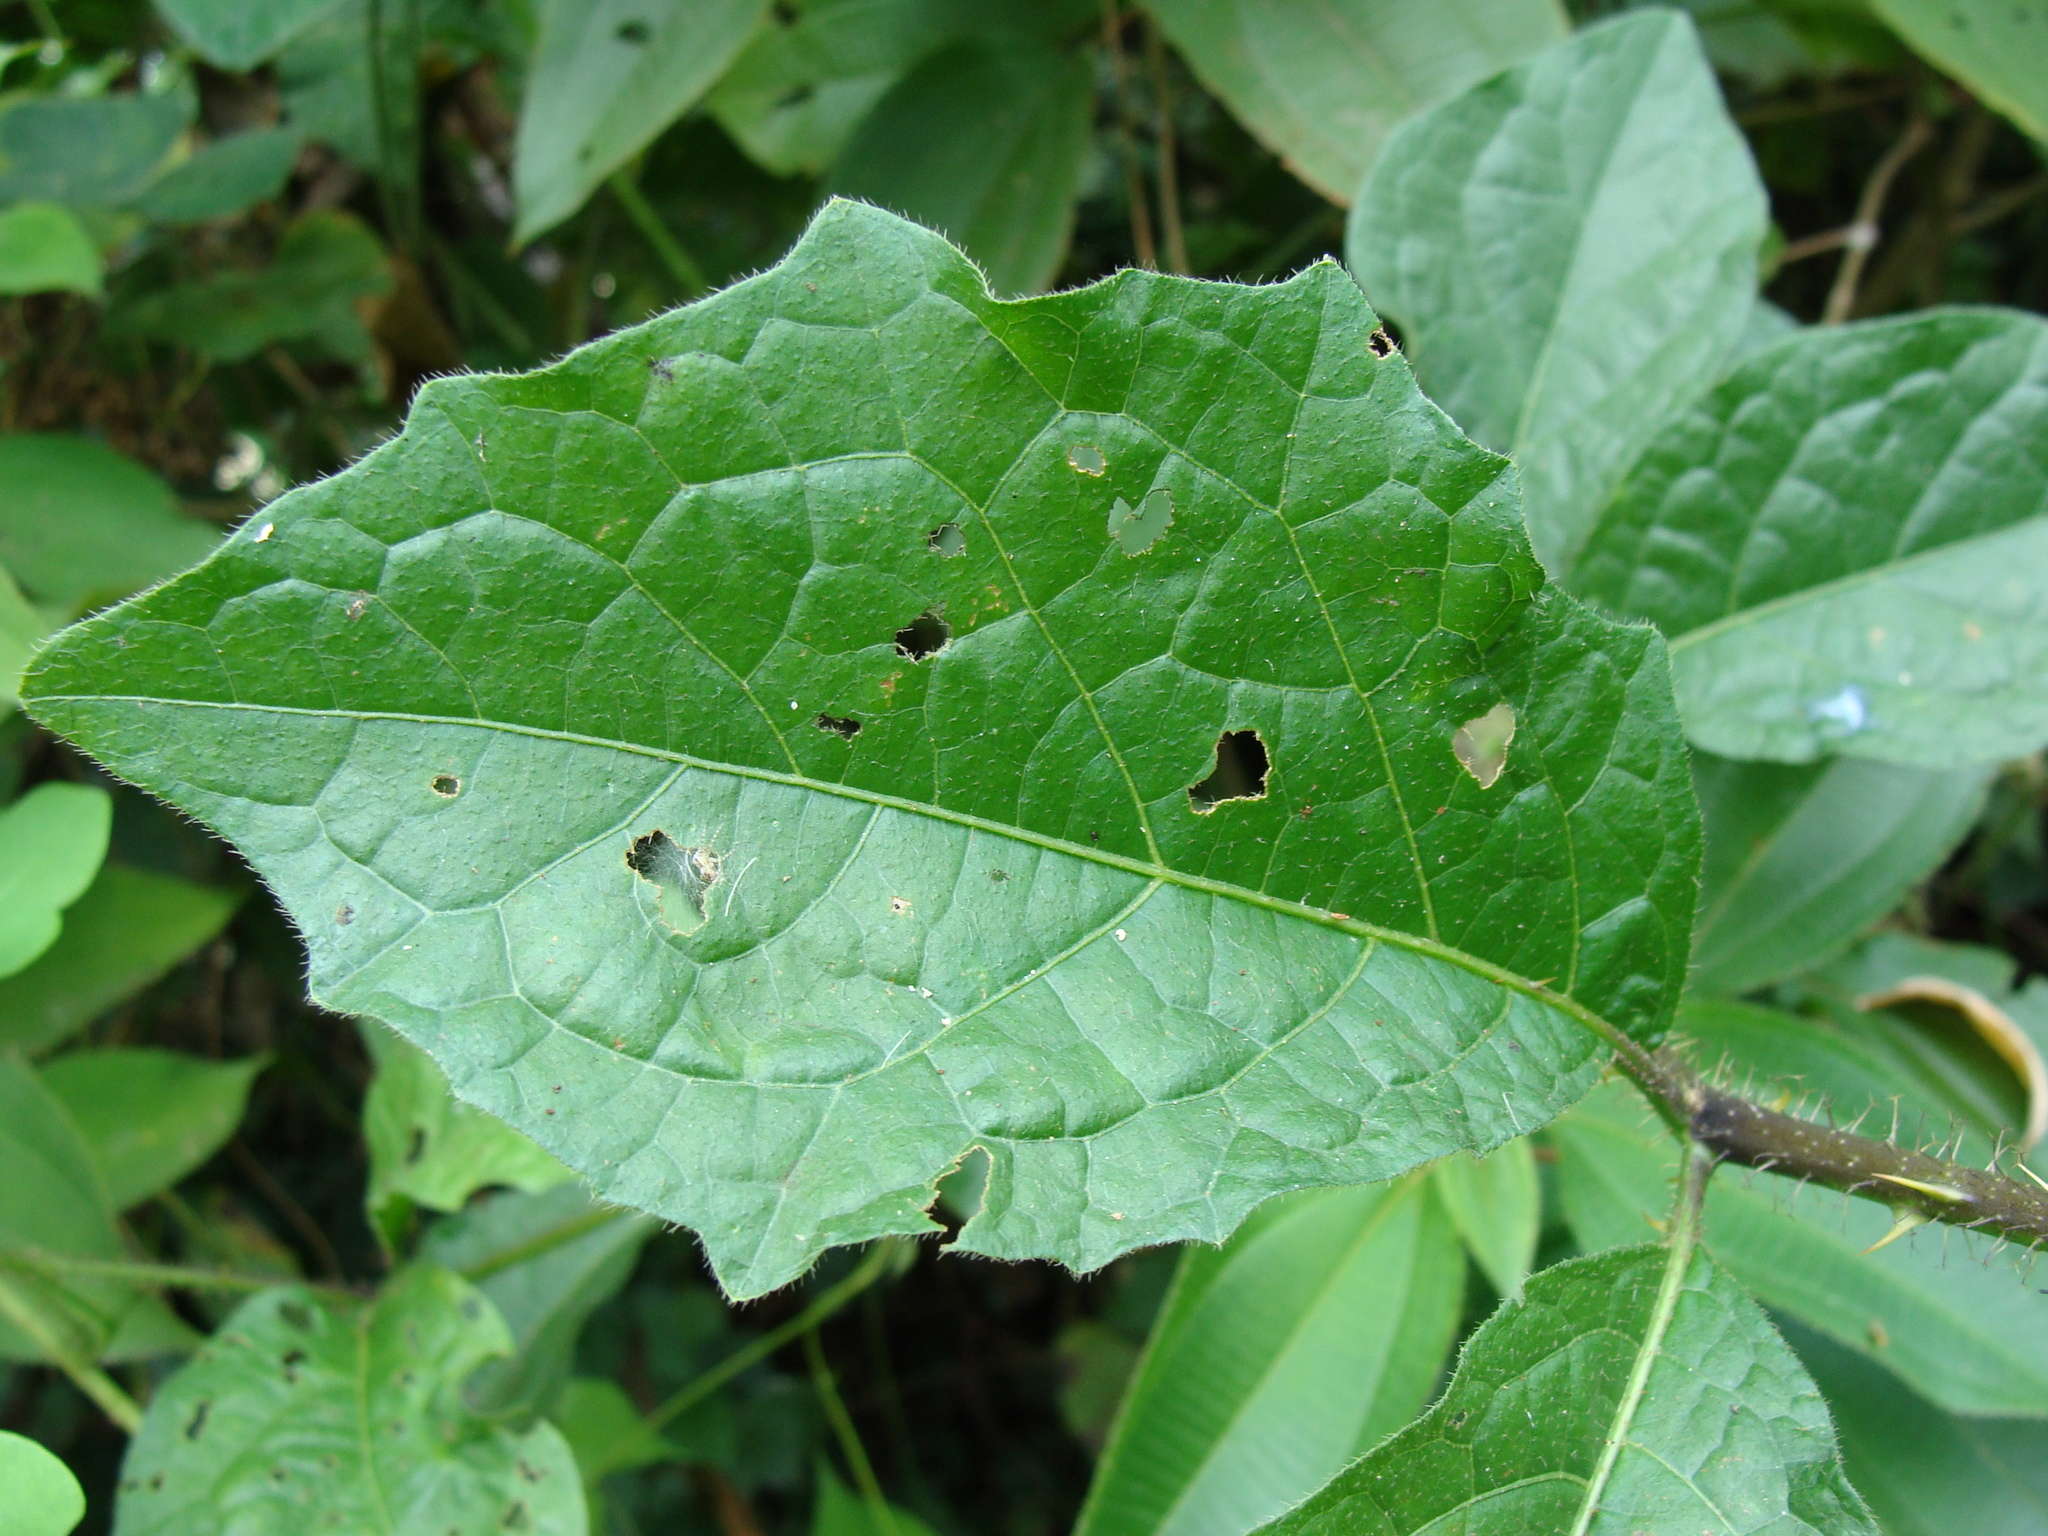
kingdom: Plantae
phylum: Tracheophyta
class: Magnoliopsida
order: Solanales
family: Solanaceae
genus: Solanum
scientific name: Solanum volubile
